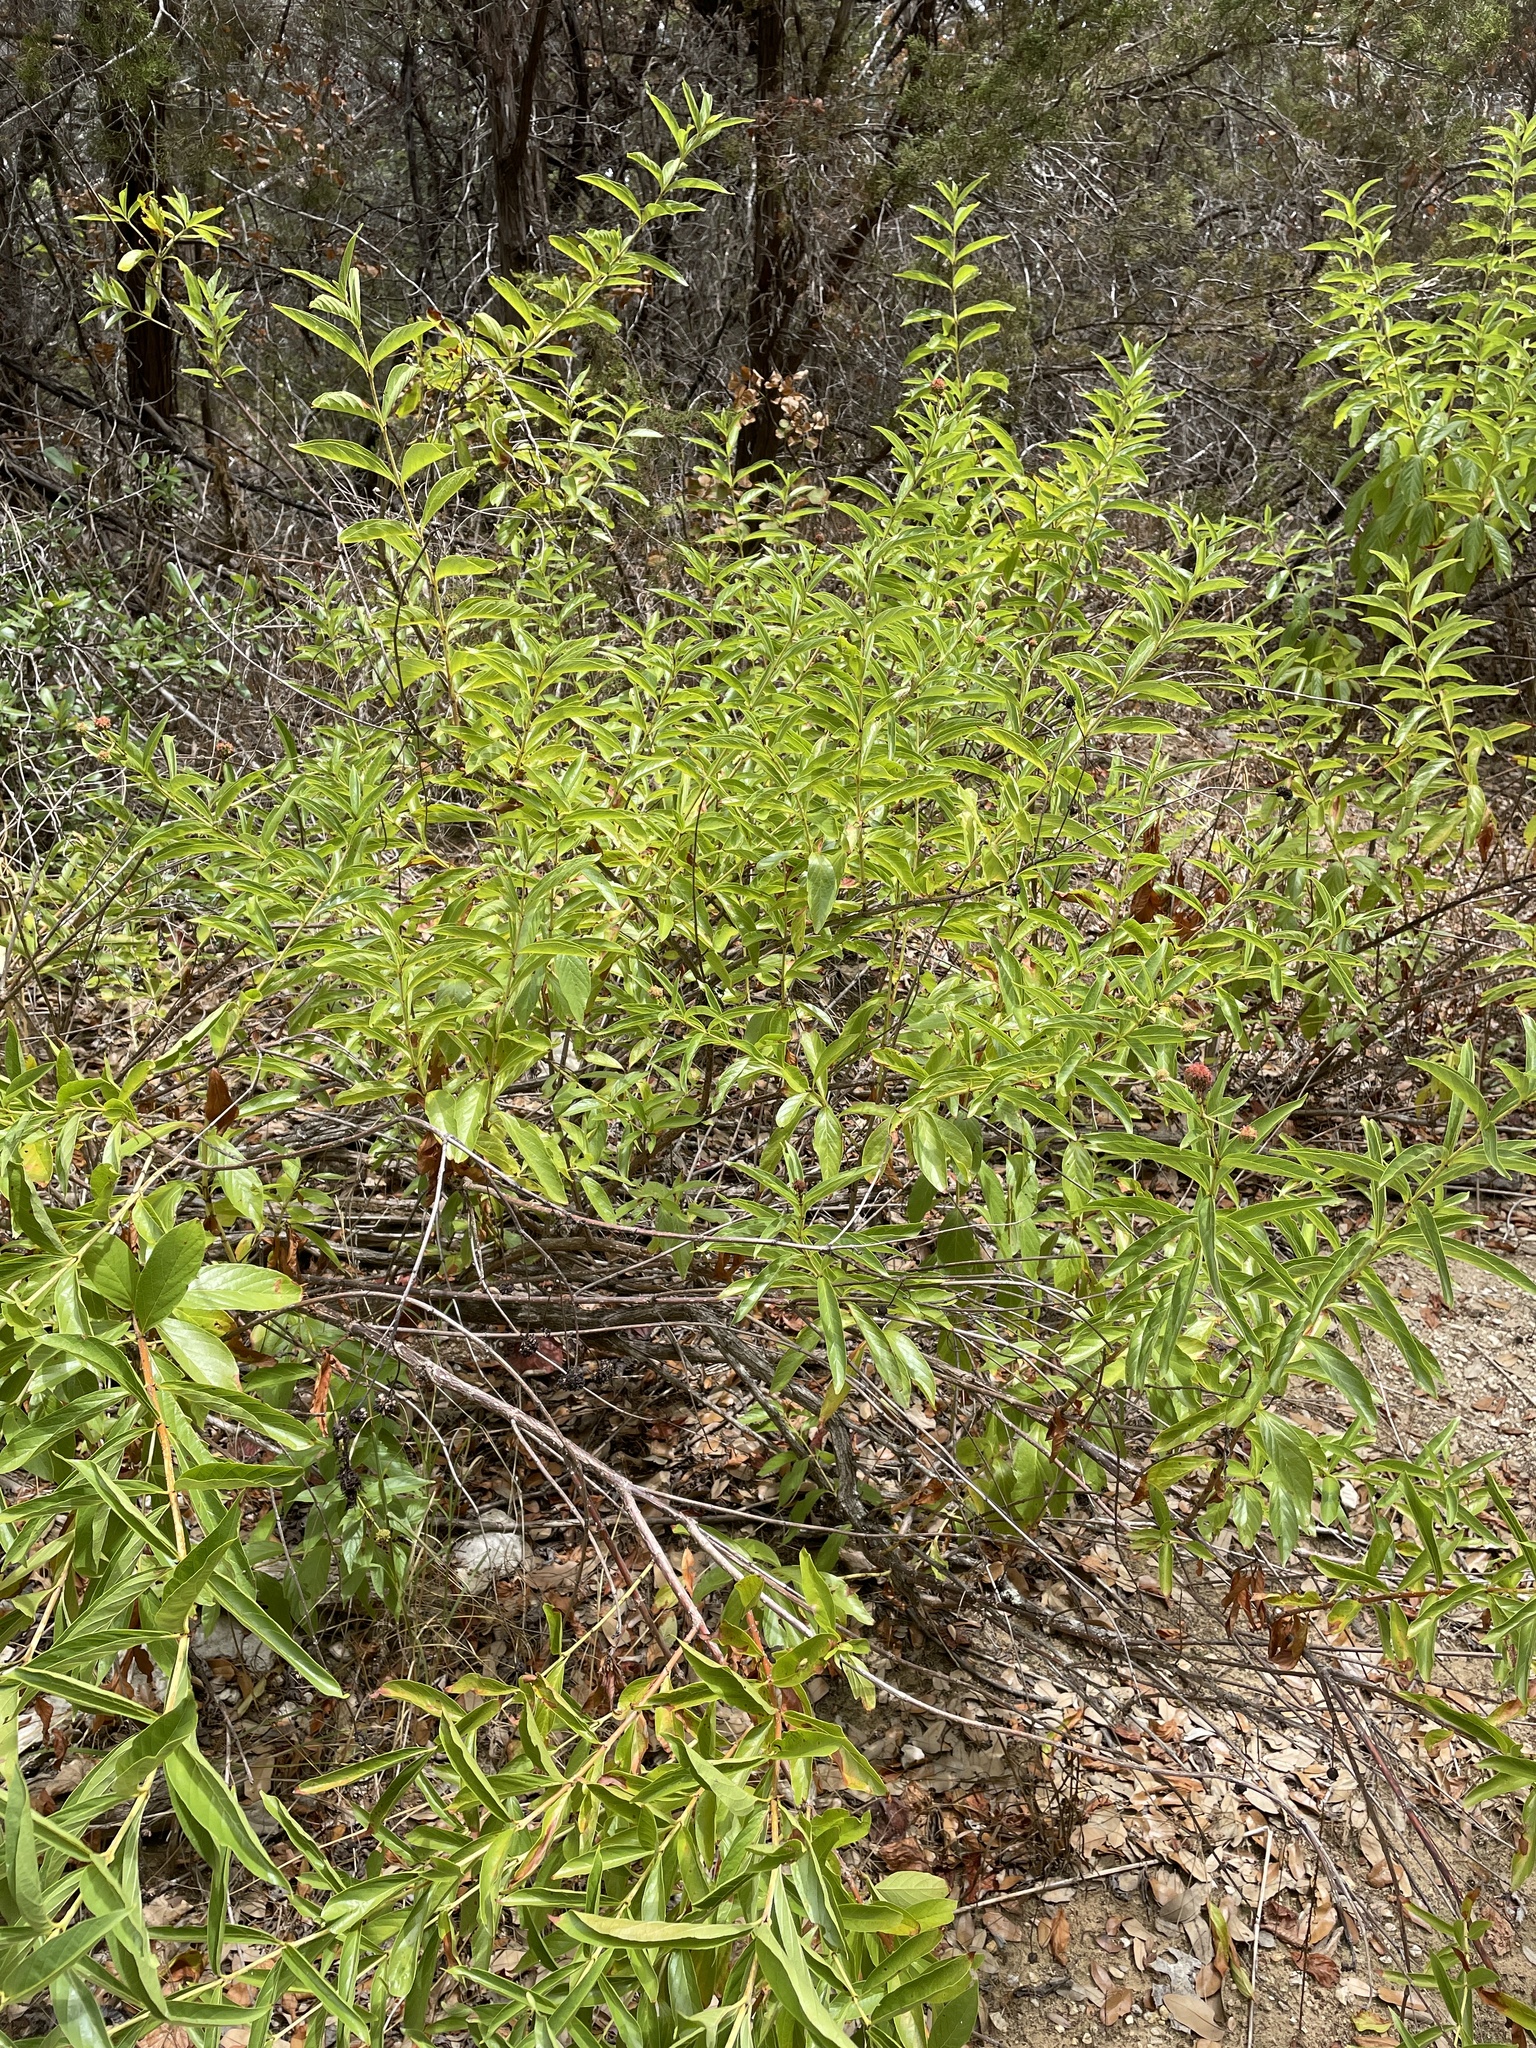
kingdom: Plantae
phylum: Tracheophyta
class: Magnoliopsida
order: Gentianales
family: Rubiaceae
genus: Cephalanthus
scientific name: Cephalanthus occidentalis
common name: Button-willow
